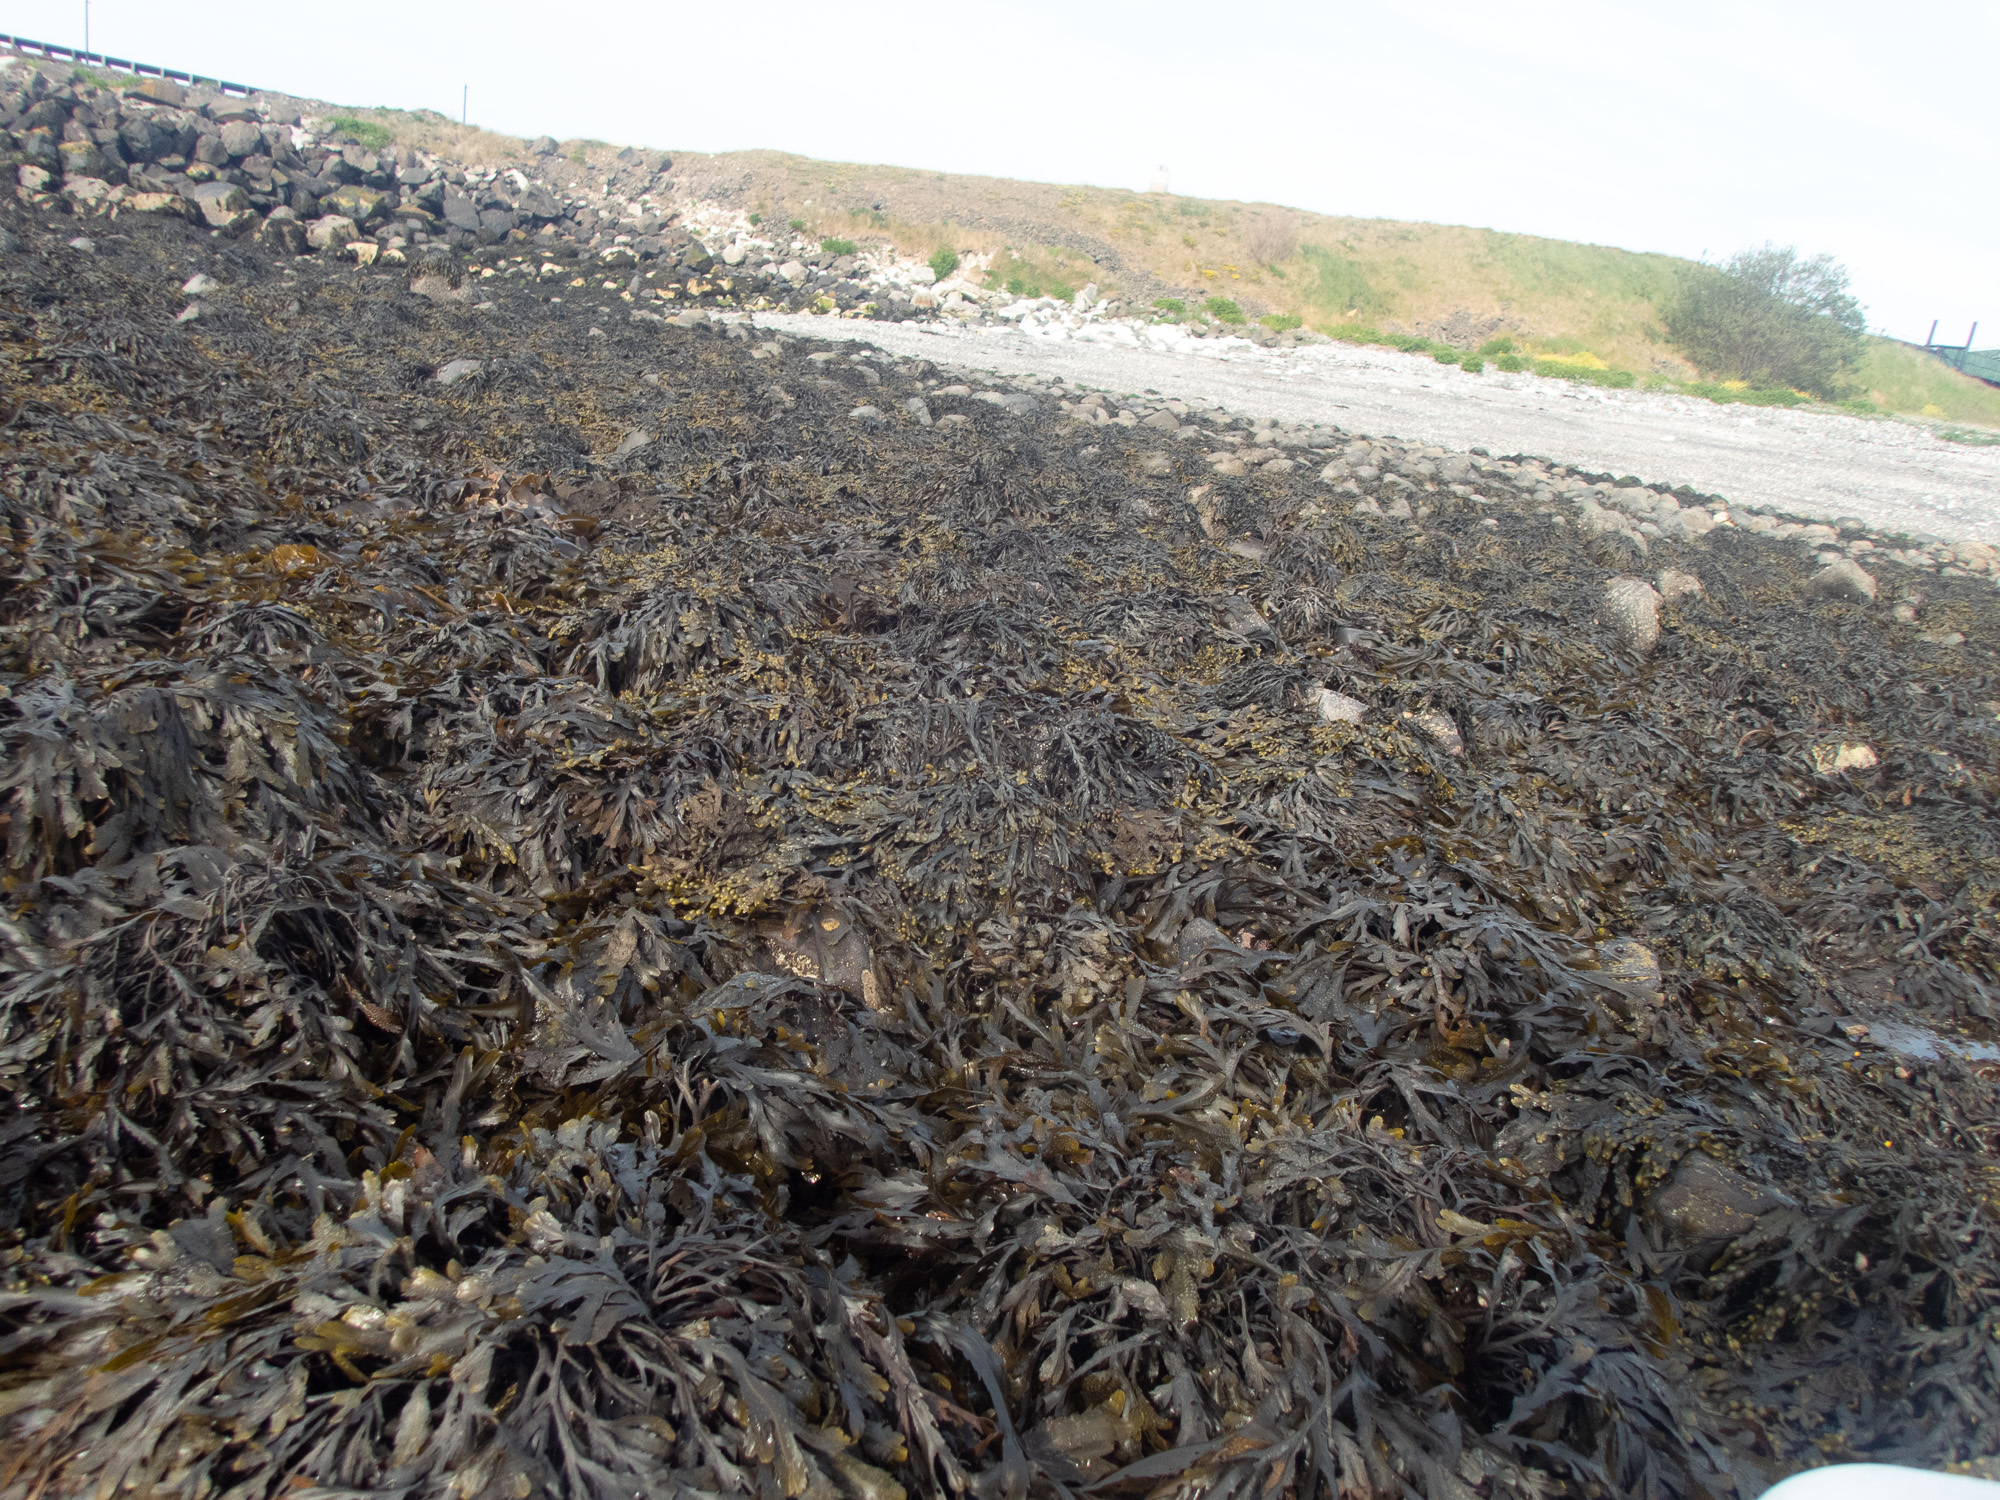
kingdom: Chromista
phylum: Ochrophyta
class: Phaeophyceae
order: Fucales
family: Fucaceae
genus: Fucus
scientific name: Fucus vesiculosus
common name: Bladder wrack
